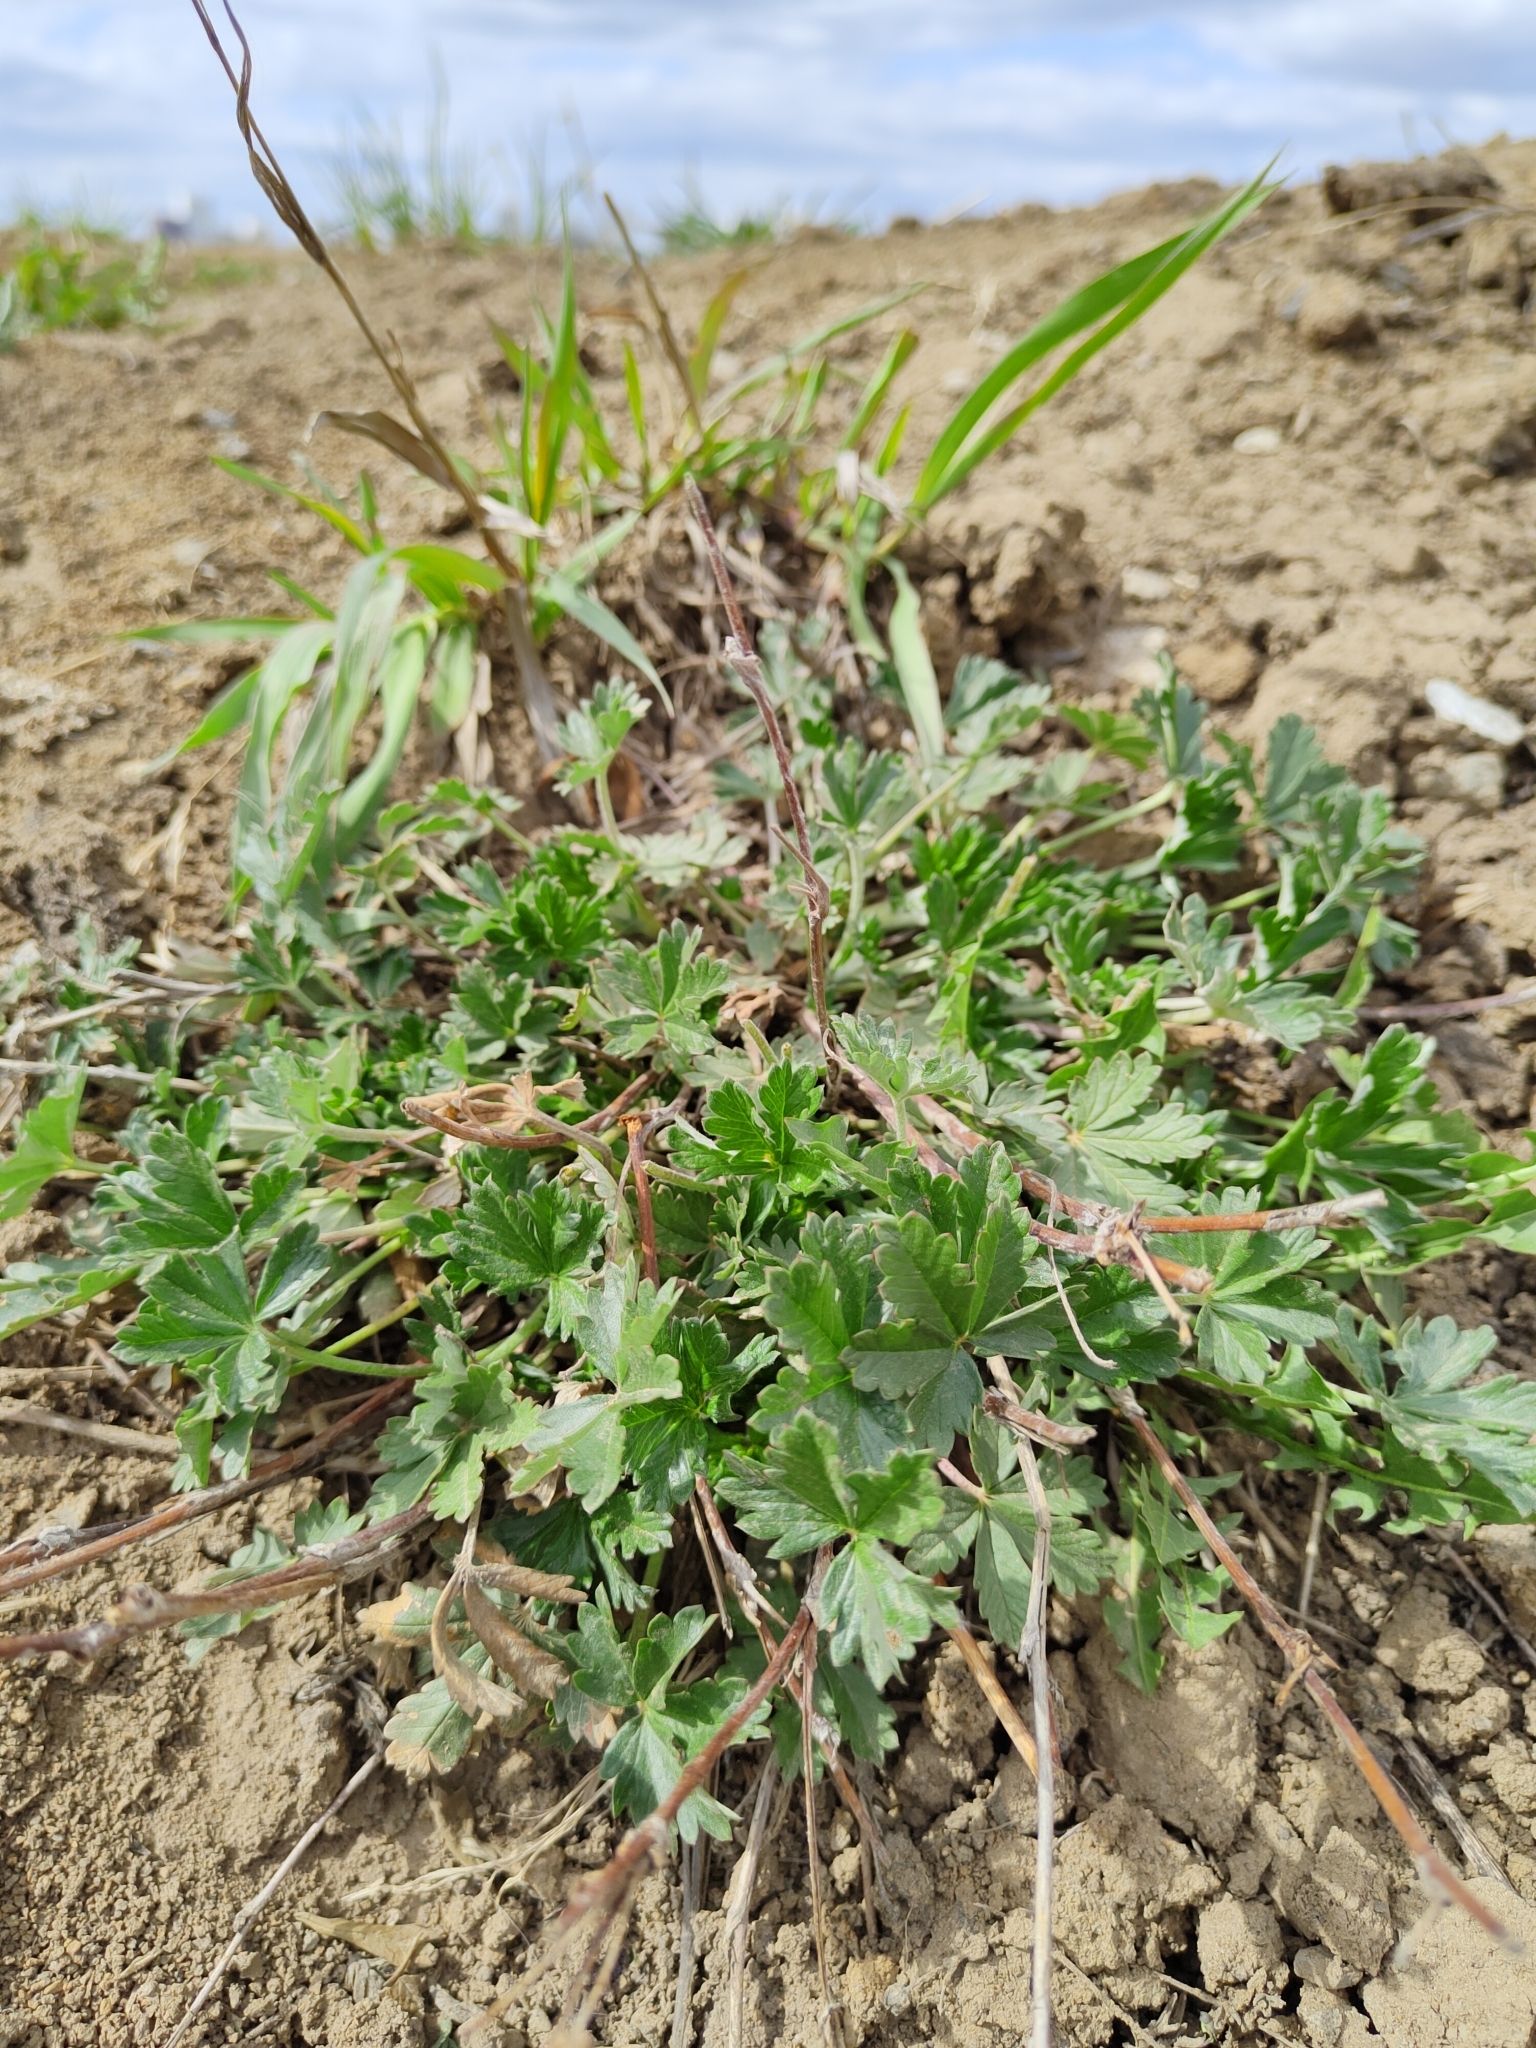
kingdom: Plantae
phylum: Tracheophyta
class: Magnoliopsida
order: Rosales
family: Rosaceae
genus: Potentilla
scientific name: Potentilla argentea
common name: Hoary cinquefoil
